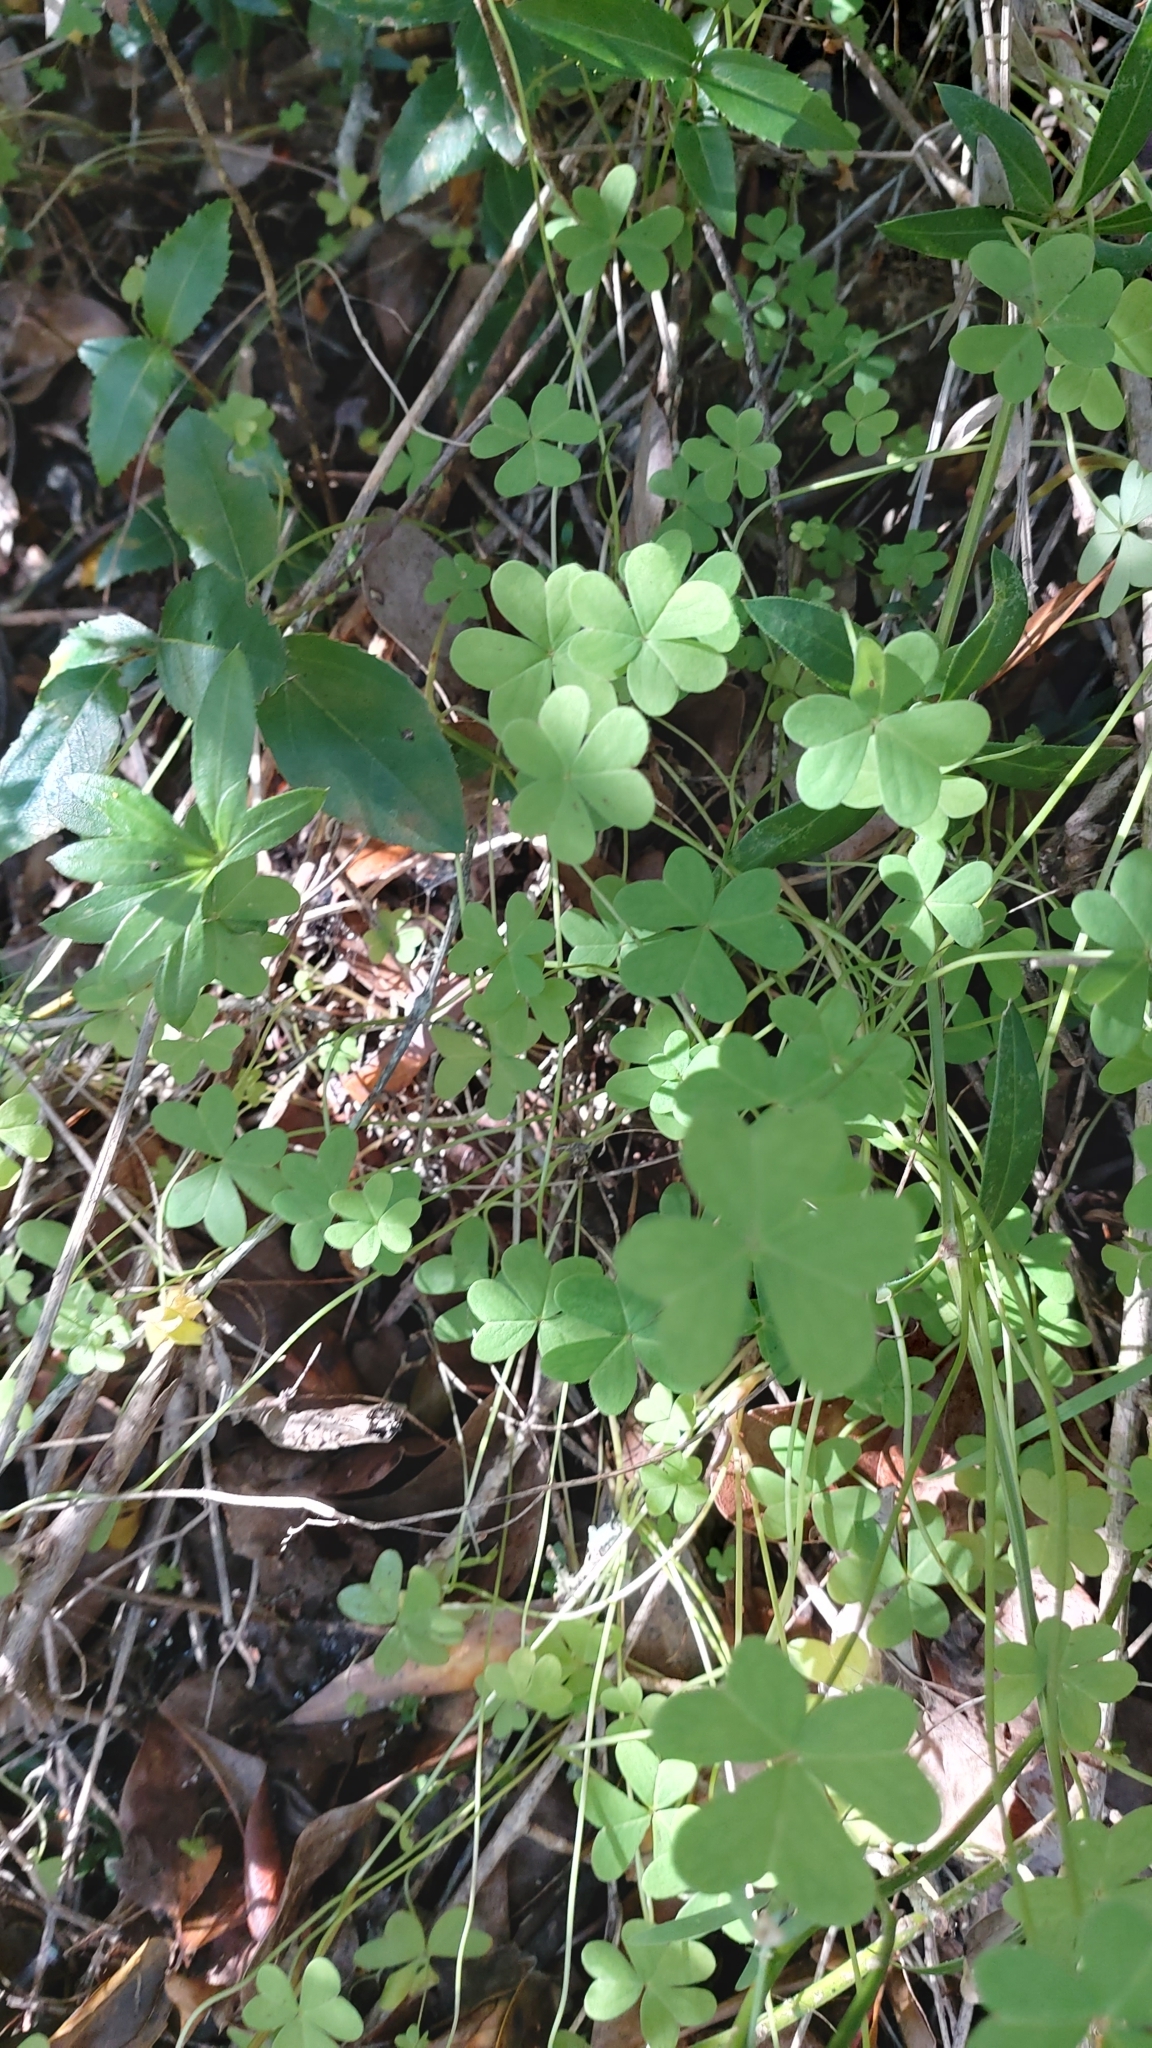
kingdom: Plantae
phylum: Tracheophyta
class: Magnoliopsida
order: Oxalidales
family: Oxalidaceae
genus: Oxalis
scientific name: Oxalis pes-caprae
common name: Bermuda-buttercup
